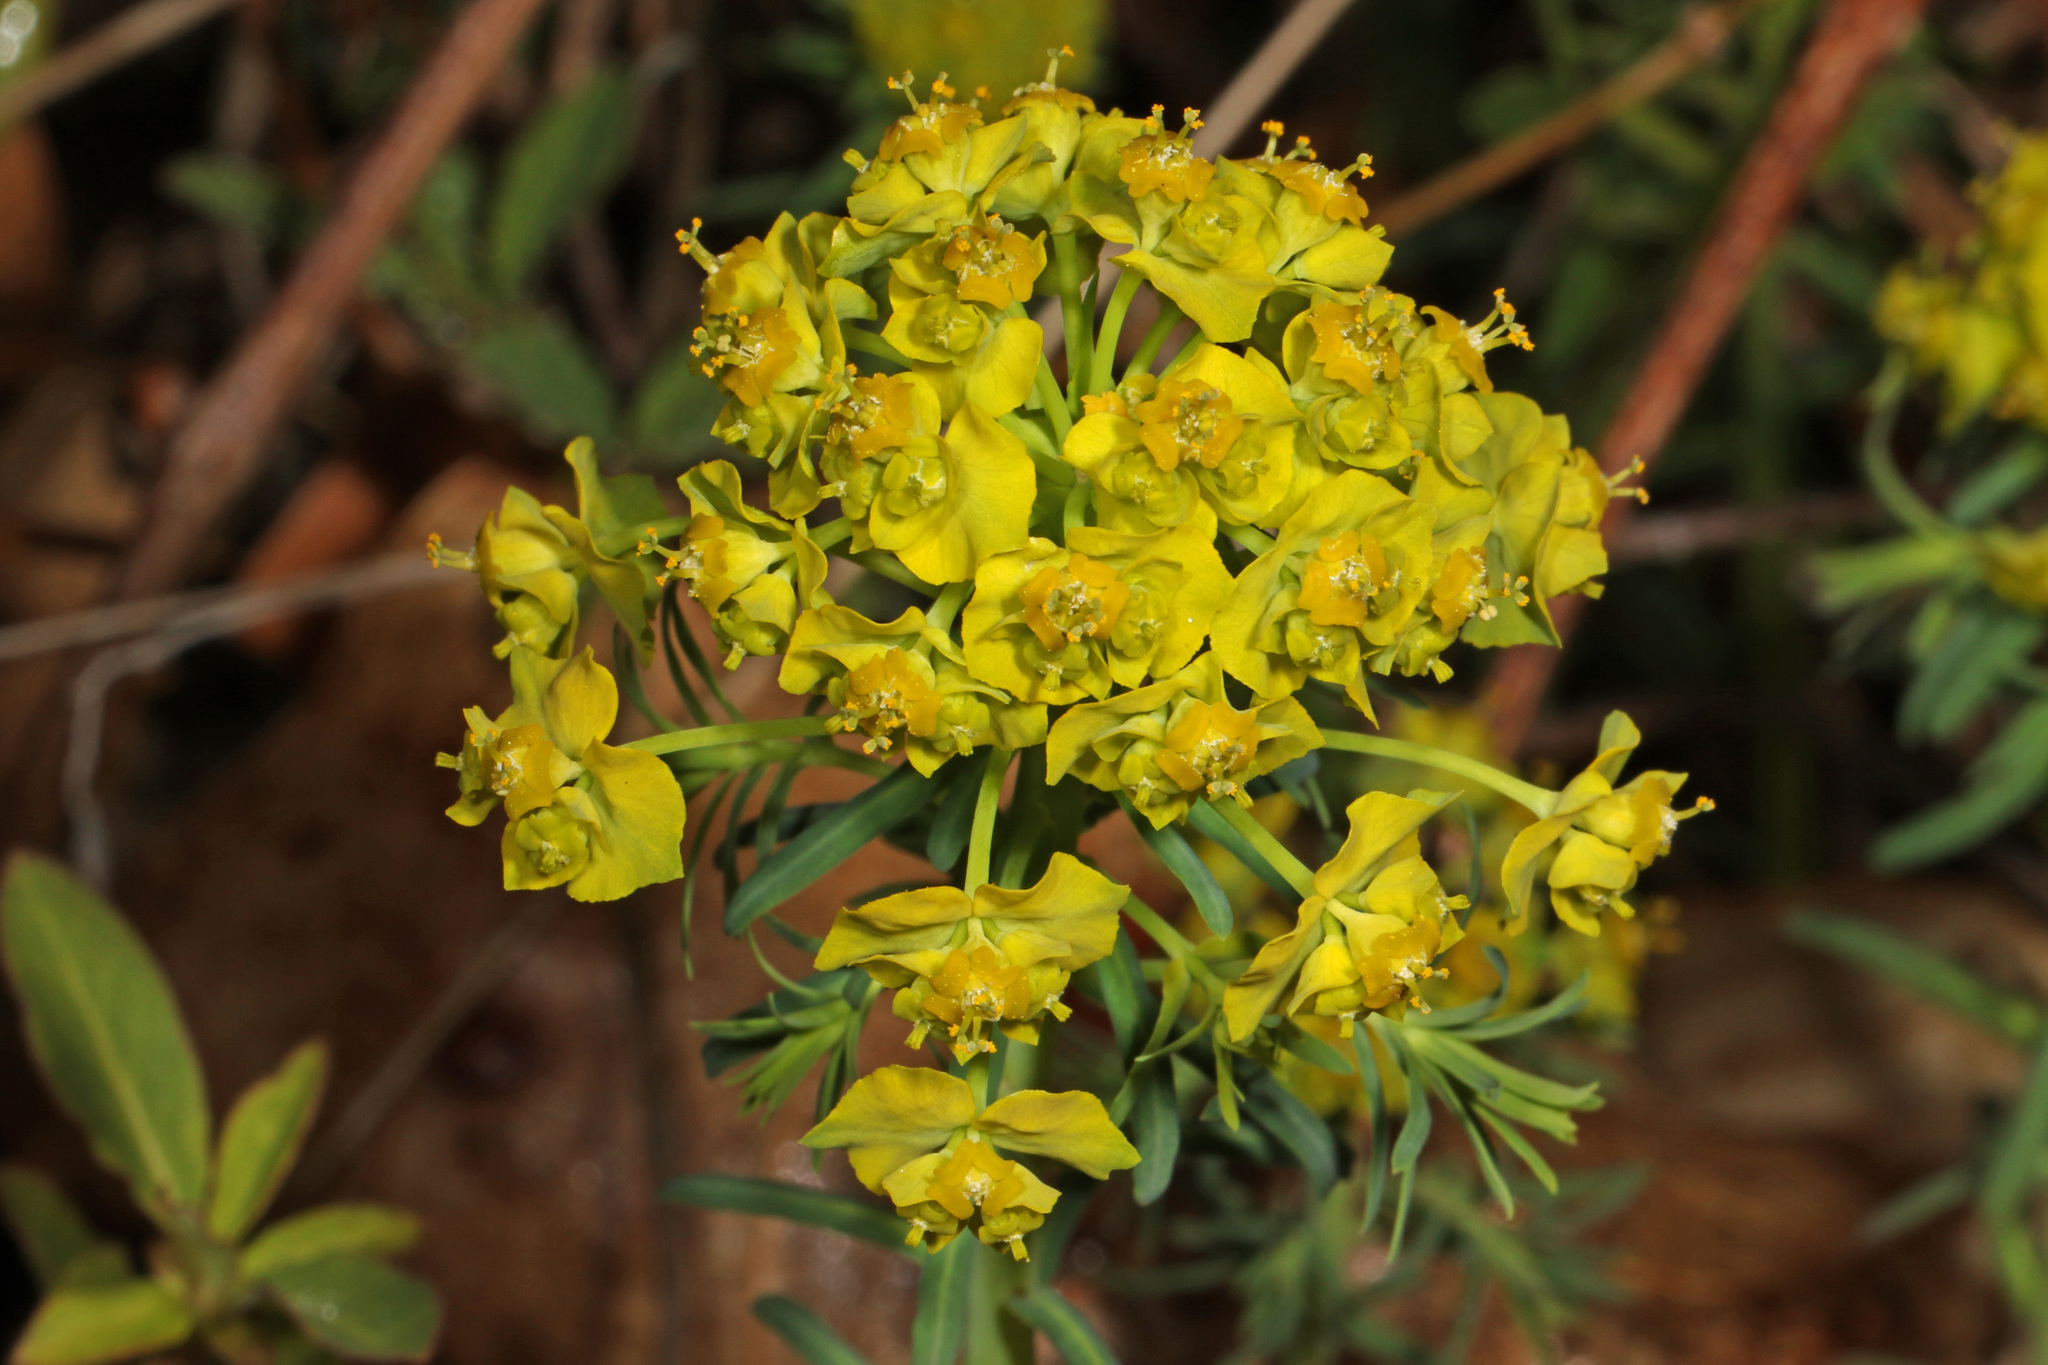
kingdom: Plantae
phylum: Tracheophyta
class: Magnoliopsida
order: Malpighiales
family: Euphorbiaceae
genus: Euphorbia
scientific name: Euphorbia cyparissias
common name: Cypress spurge
